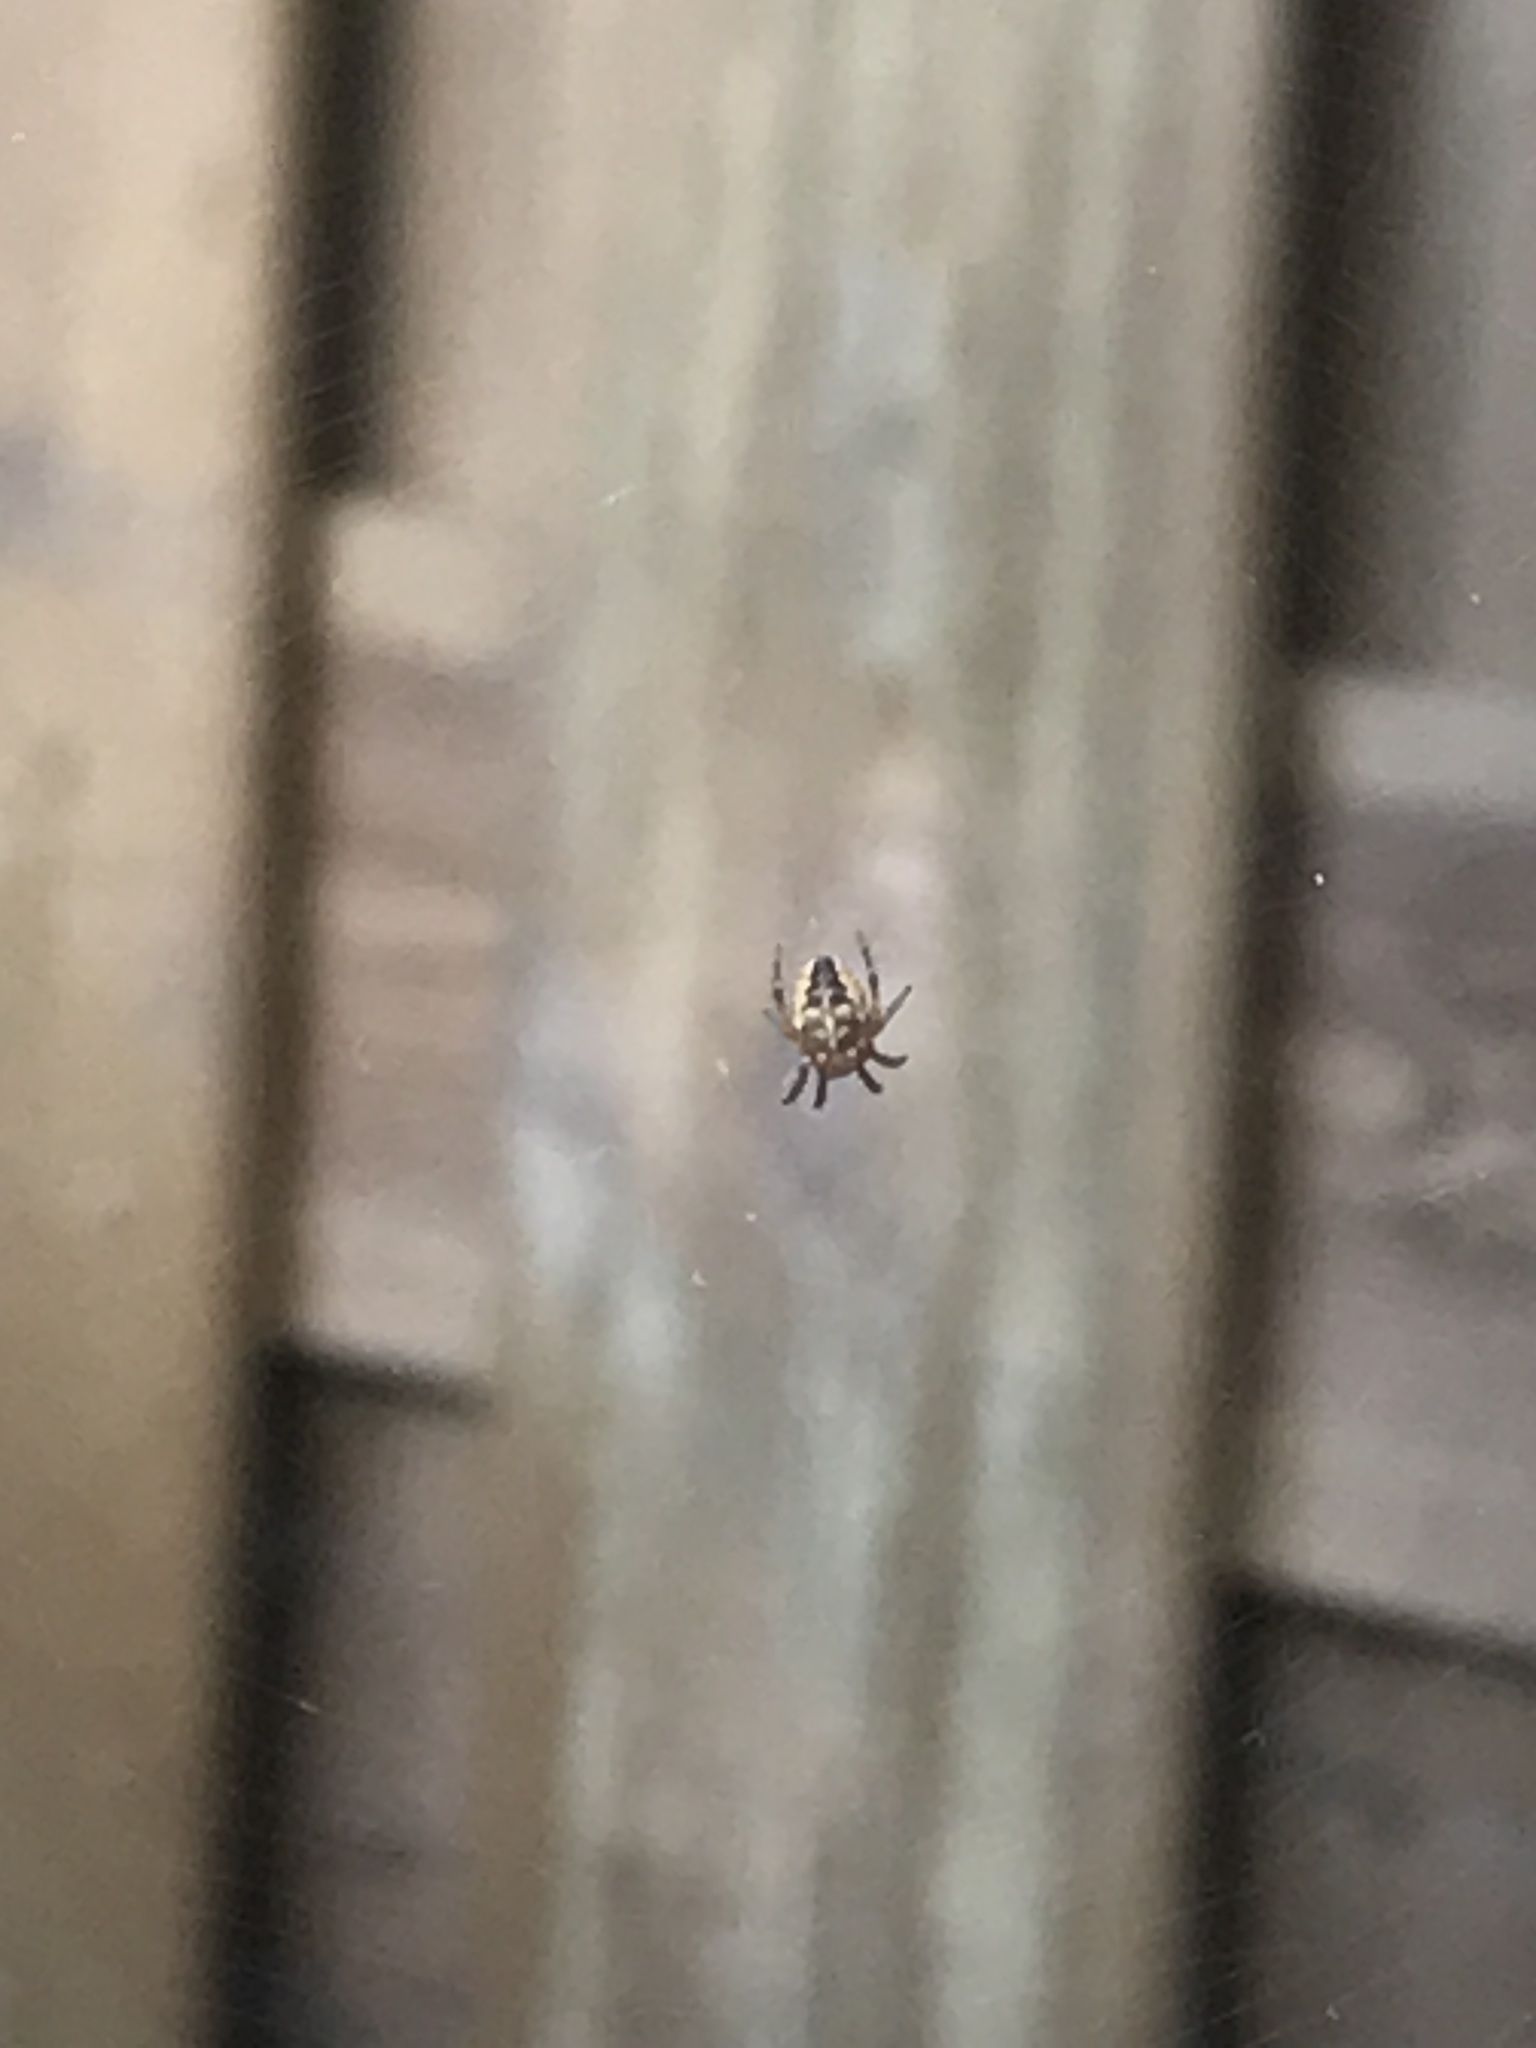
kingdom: Animalia
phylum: Arthropoda
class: Arachnida
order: Araneae
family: Araneidae
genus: Araneus
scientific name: Araneus diadematus
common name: Cross orbweaver
